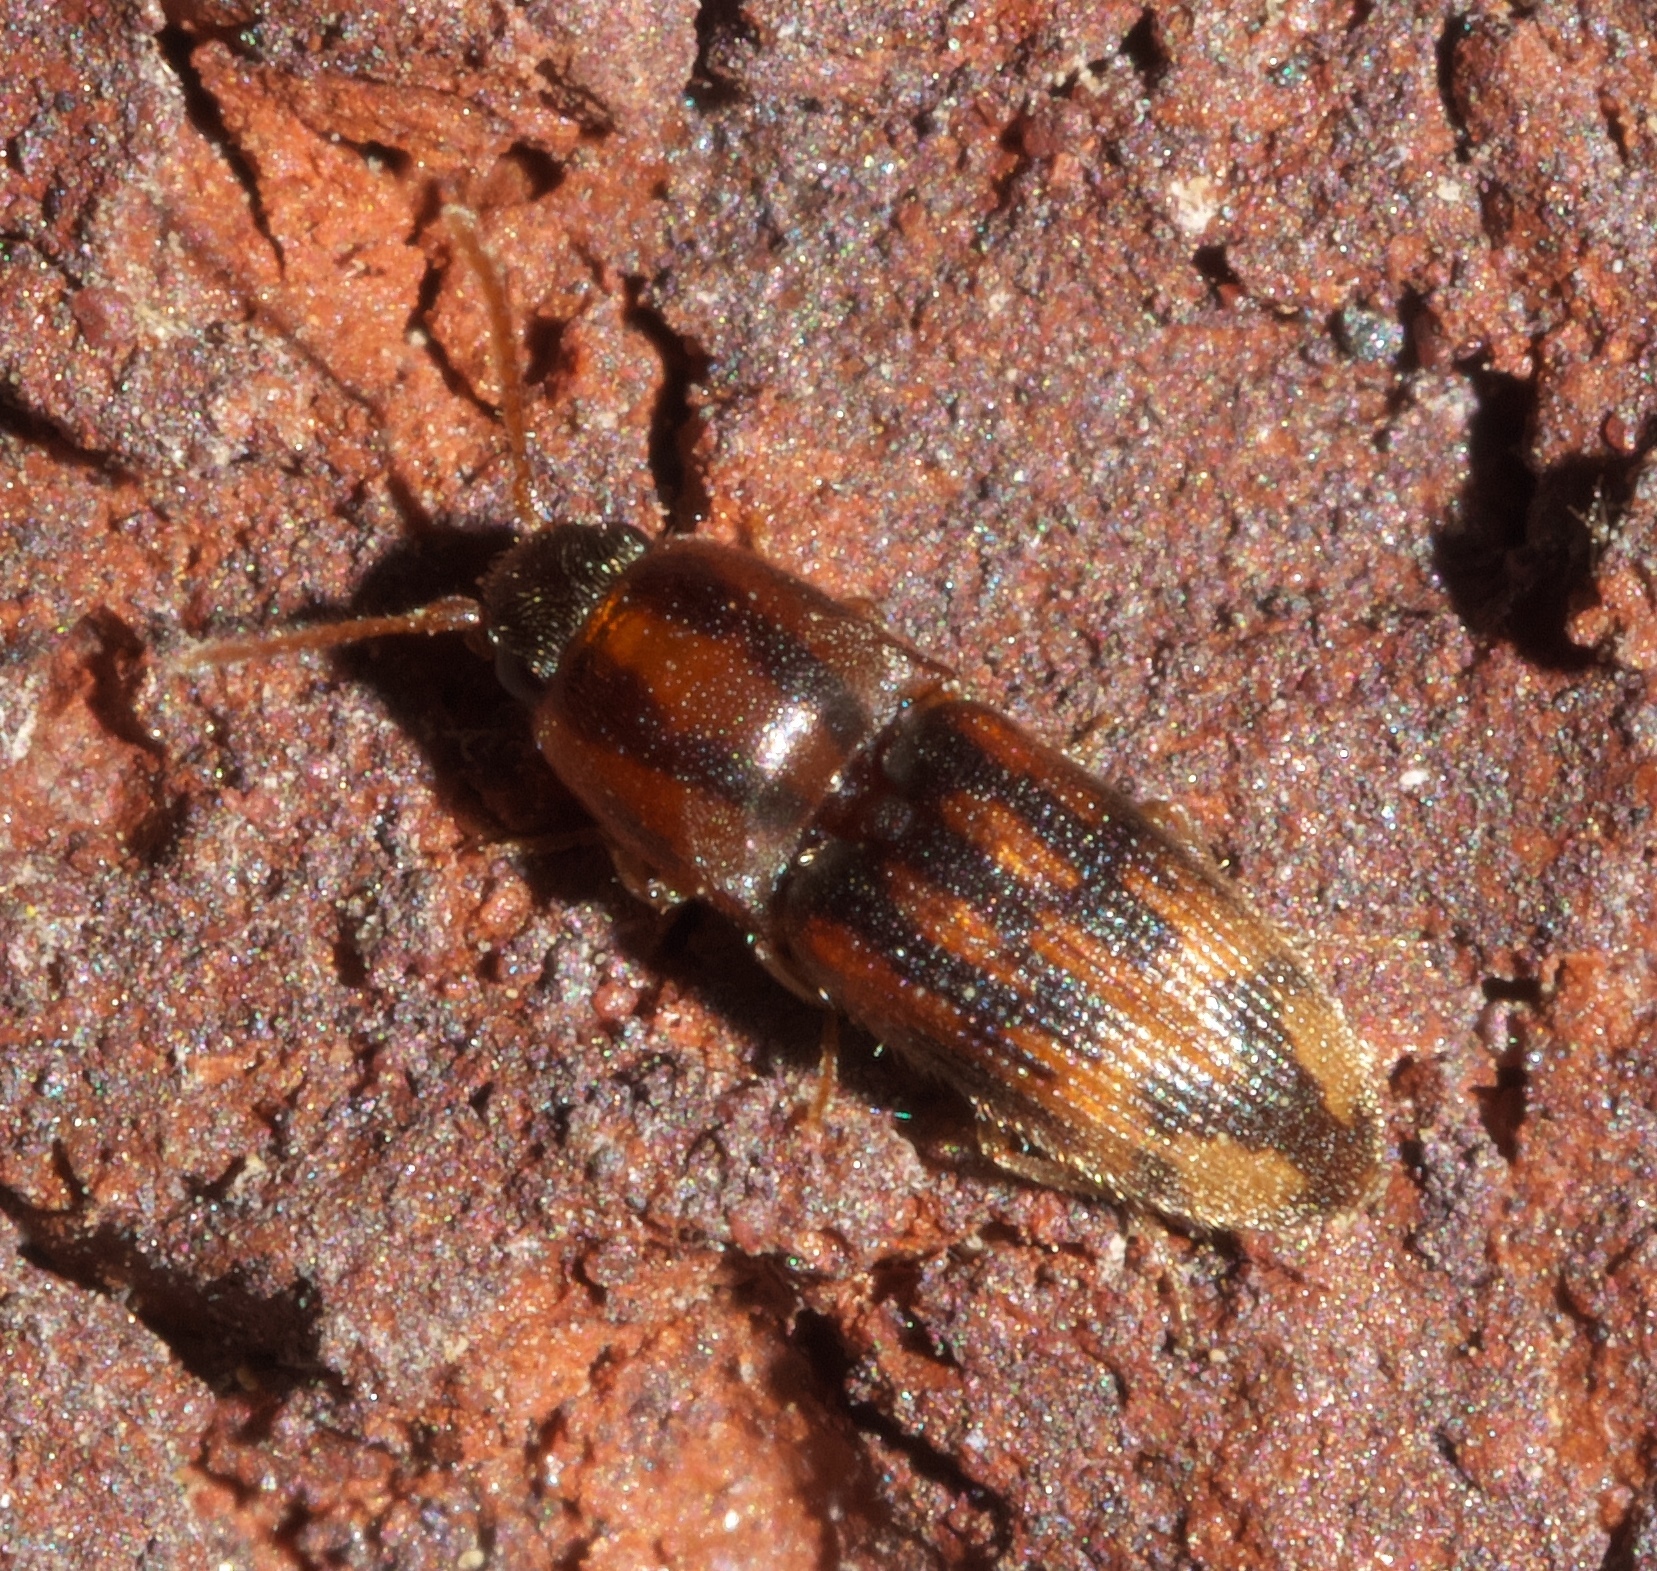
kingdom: Animalia
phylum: Arthropoda
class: Insecta
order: Coleoptera
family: Elateridae
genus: Monocrepidius
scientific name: Monocrepidius bellus
